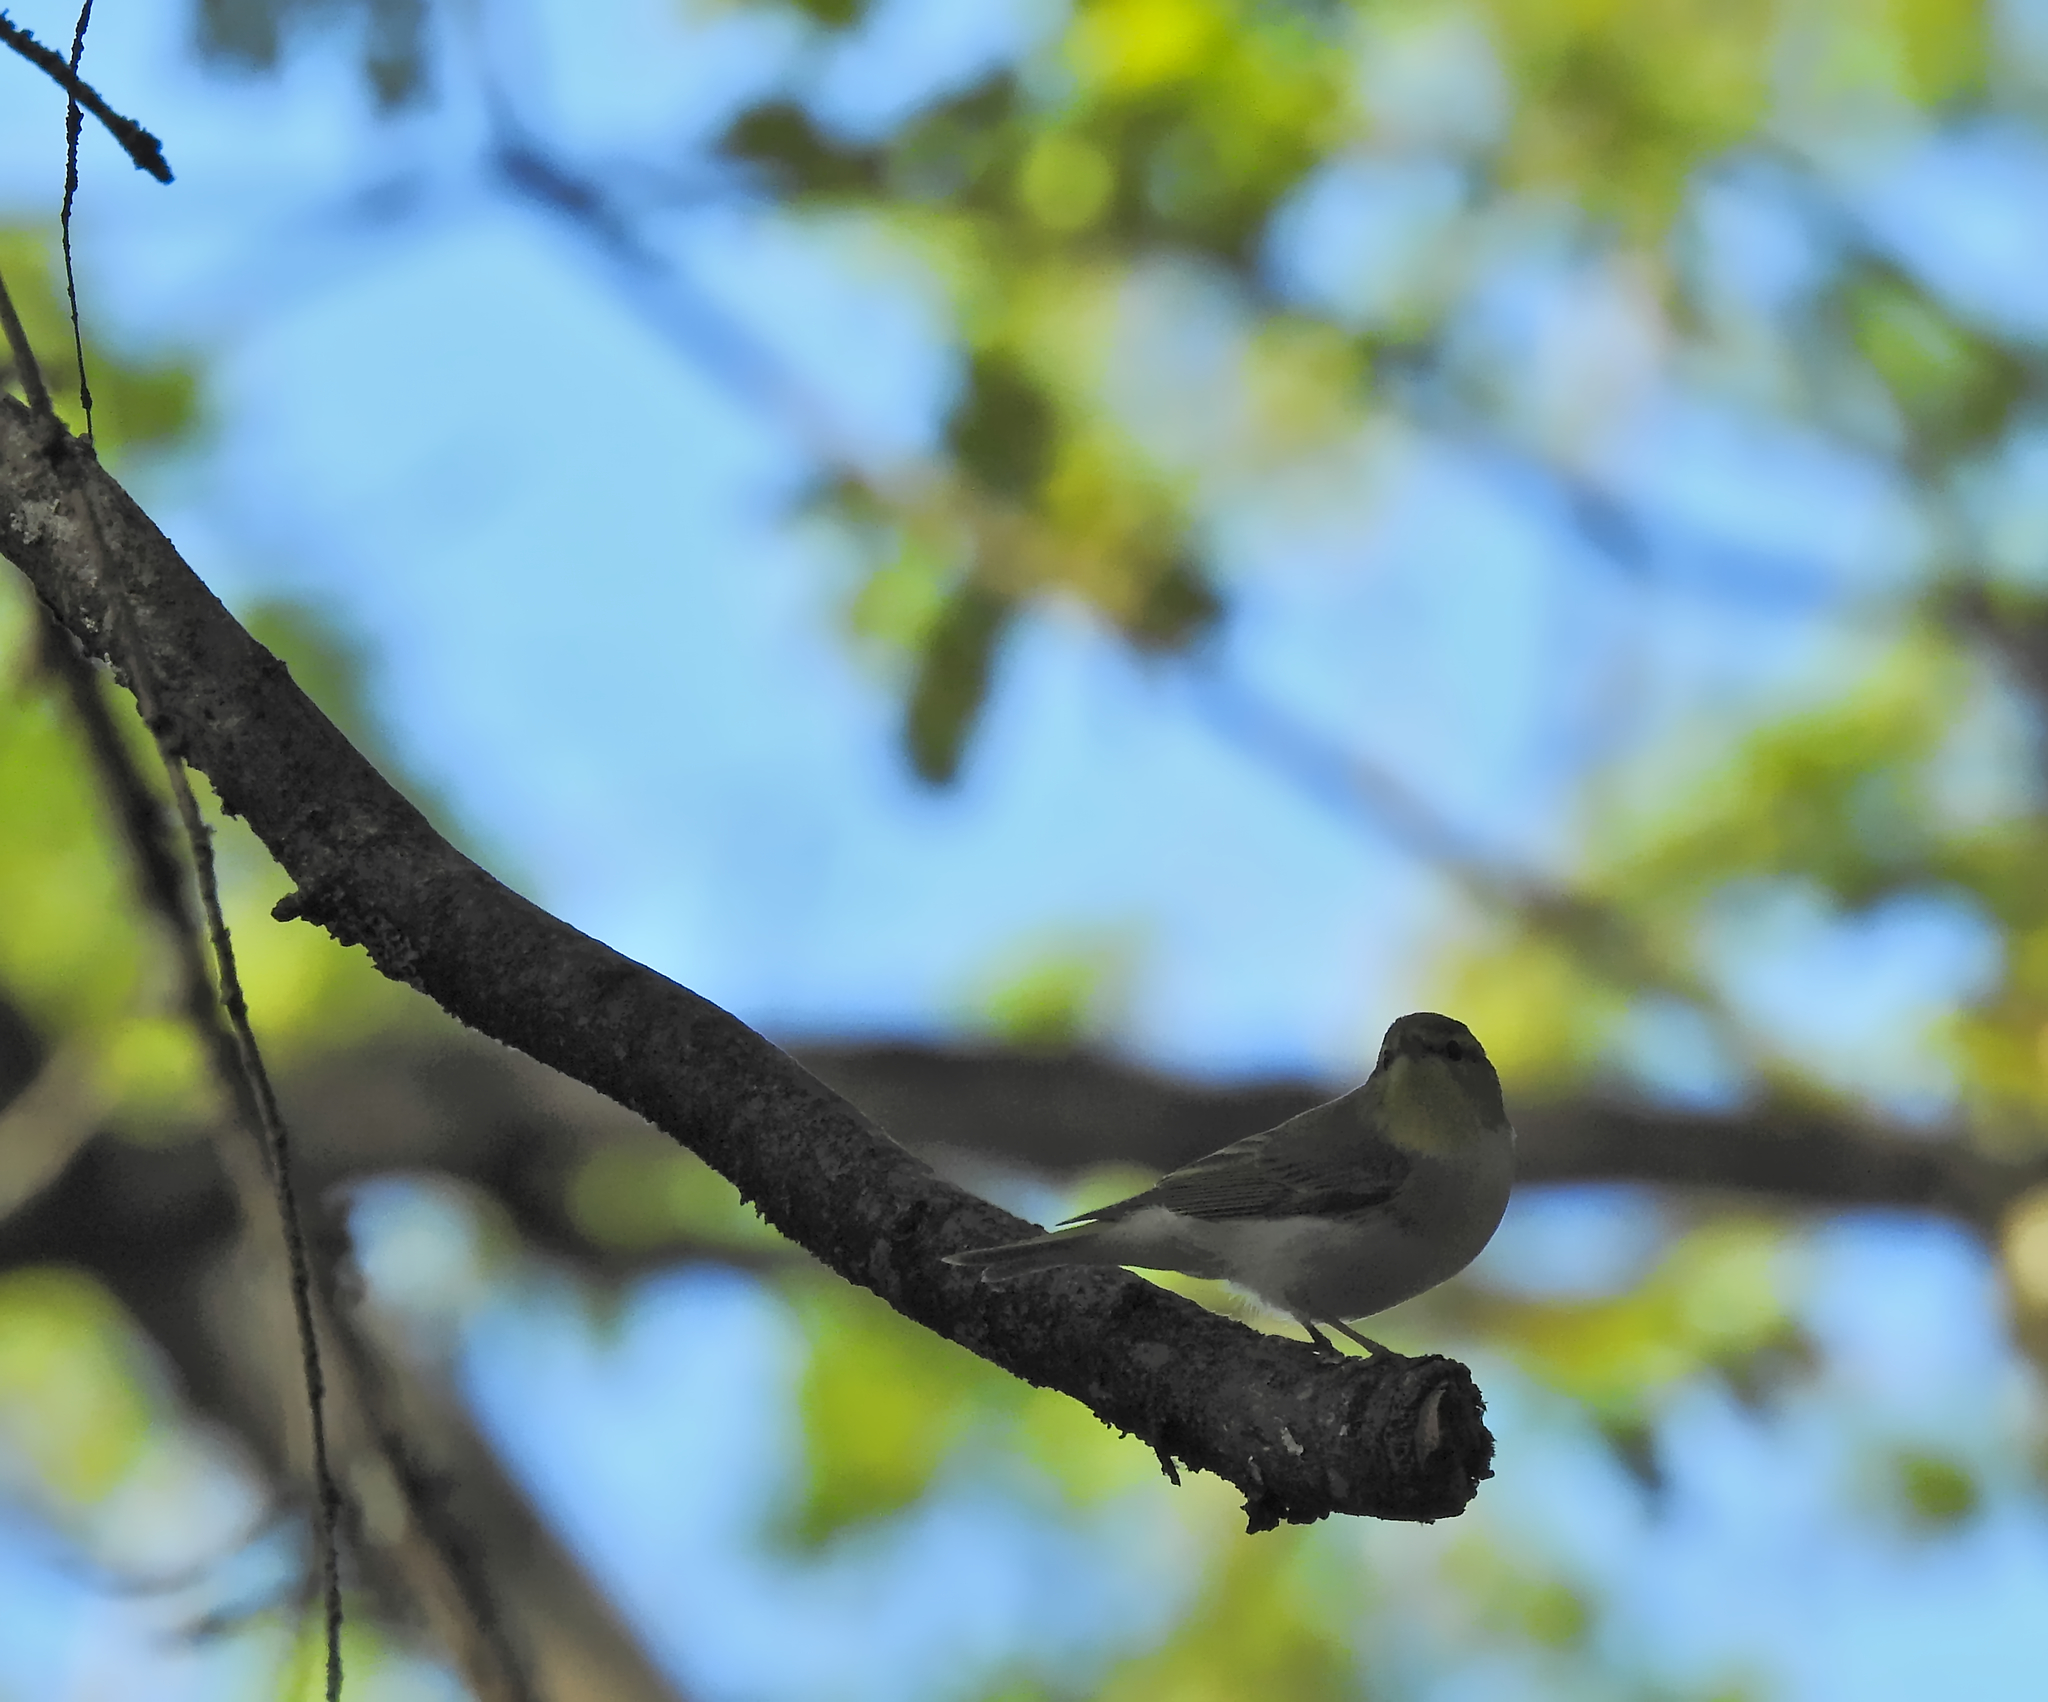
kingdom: Animalia
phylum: Chordata
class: Aves
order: Passeriformes
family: Phylloscopidae
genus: Phylloscopus
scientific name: Phylloscopus sibillatrix
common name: Wood warbler
